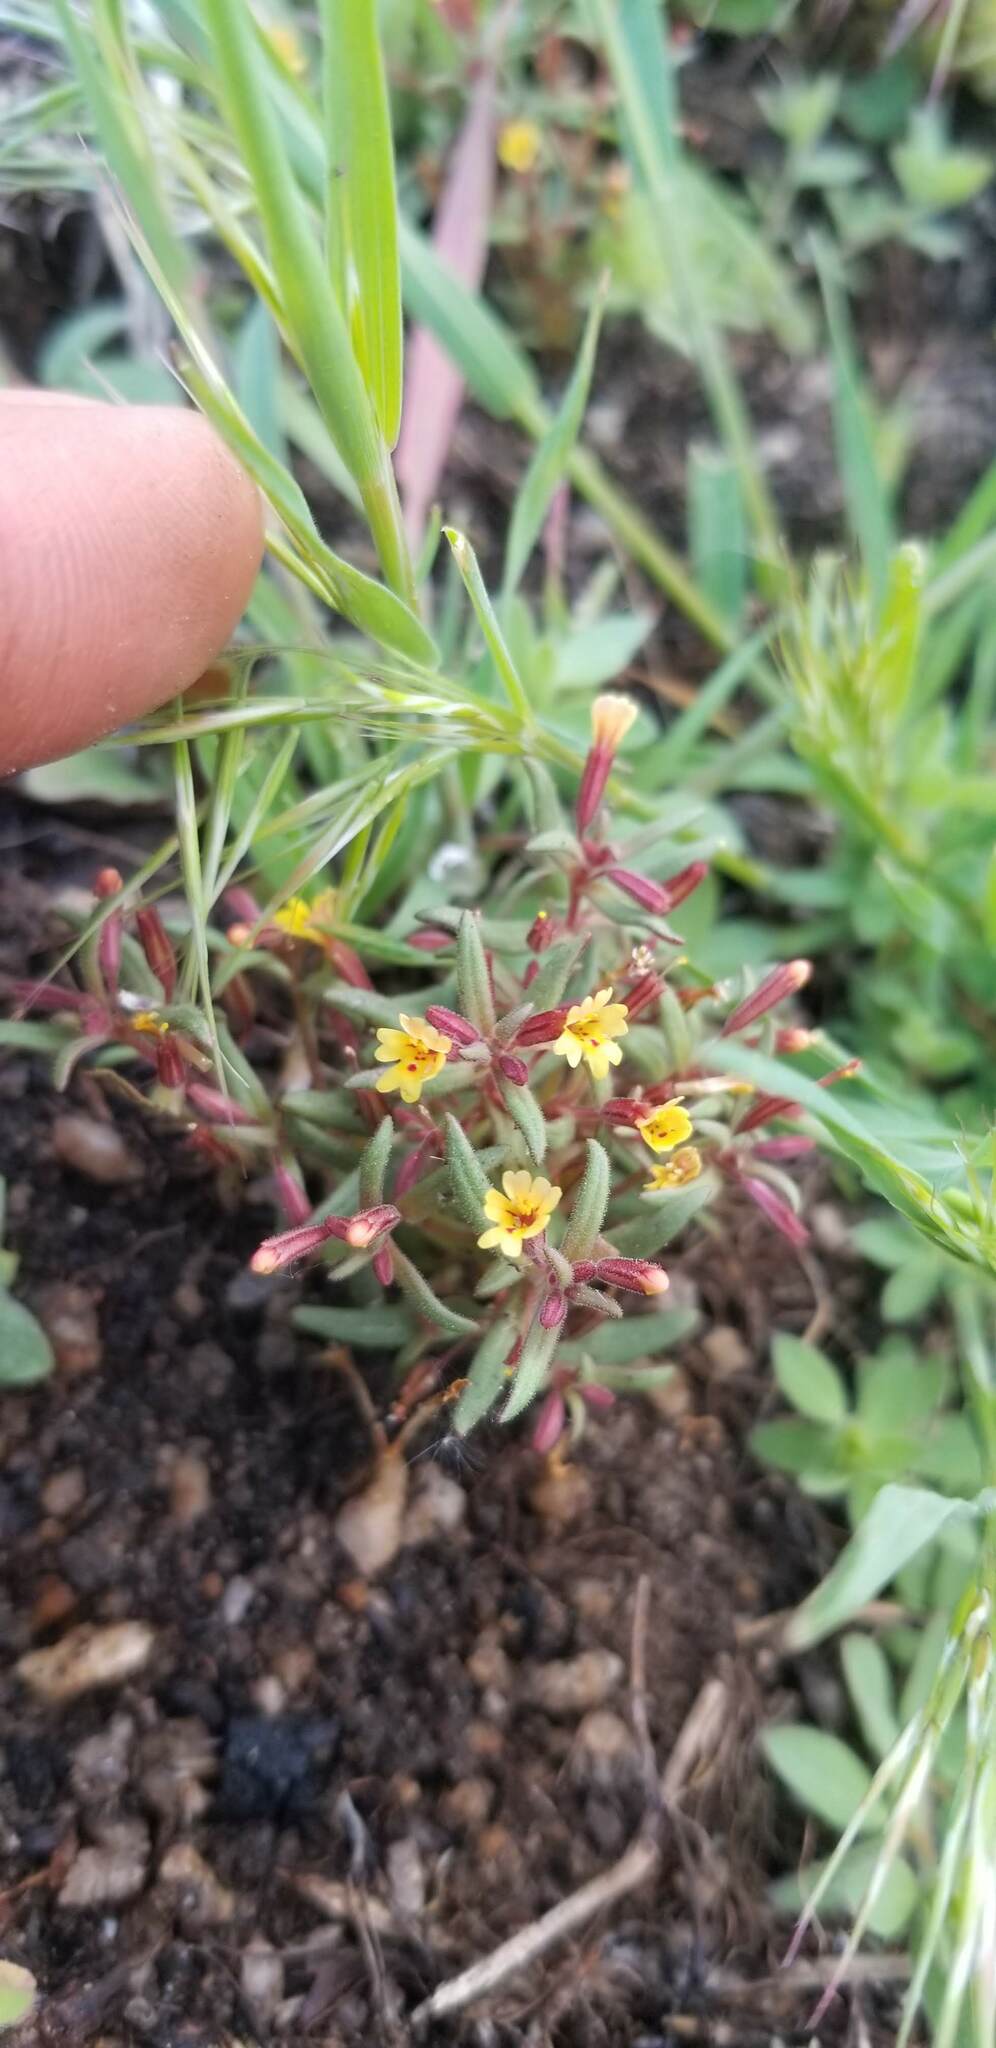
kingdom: Plantae
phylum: Tracheophyta
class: Magnoliopsida
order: Lamiales
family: Phrymaceae
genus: Erythranthe
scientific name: Erythranthe suksdorfii
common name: Suksdorf's monkeyflower
